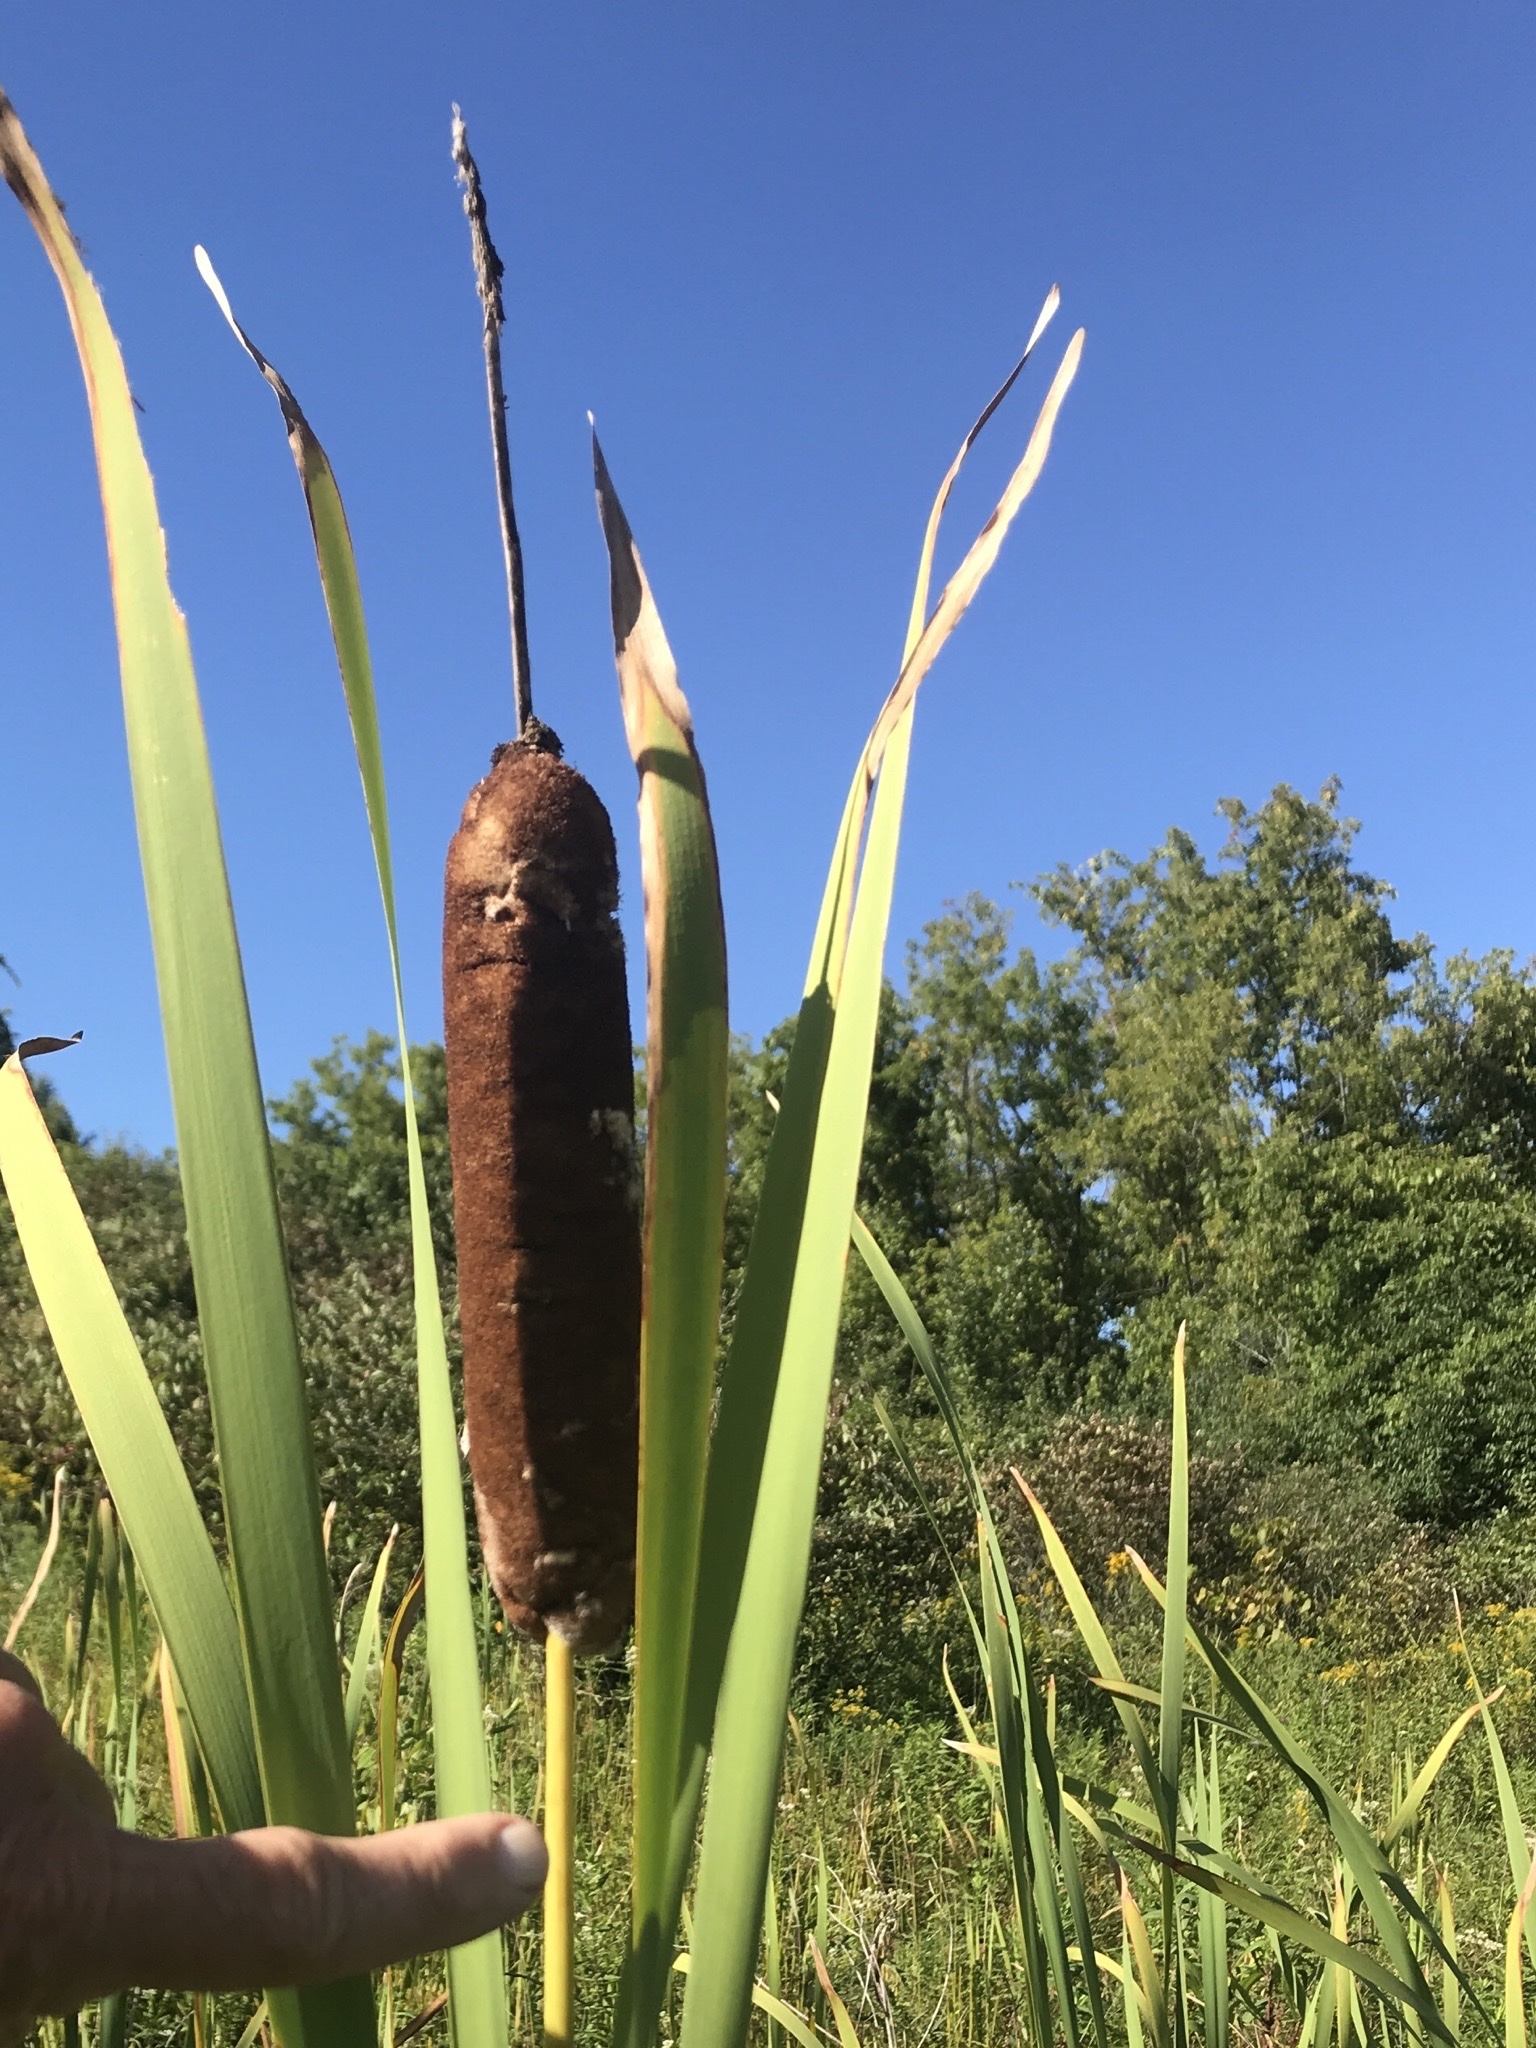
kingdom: Plantae
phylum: Tracheophyta
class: Liliopsida
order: Poales
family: Typhaceae
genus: Typha
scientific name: Typha latifolia
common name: Broadleaf cattail
